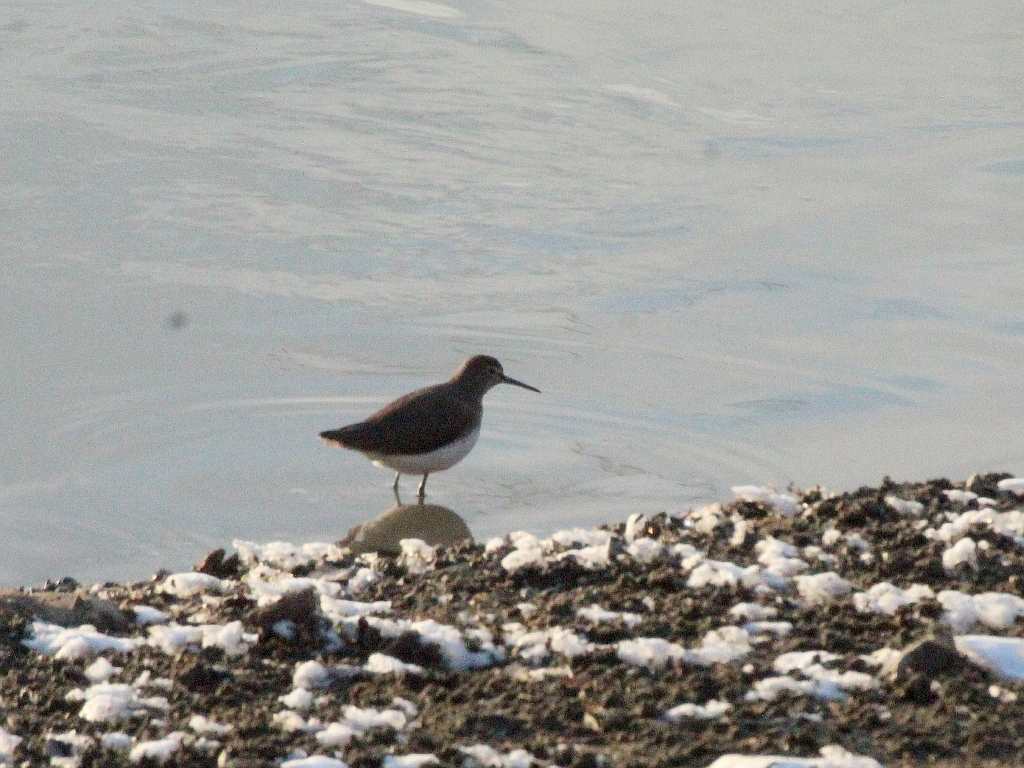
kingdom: Animalia
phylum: Chordata
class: Aves
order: Charadriiformes
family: Scolopacidae
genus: Tringa
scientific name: Tringa ochropus
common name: Green sandpiper
